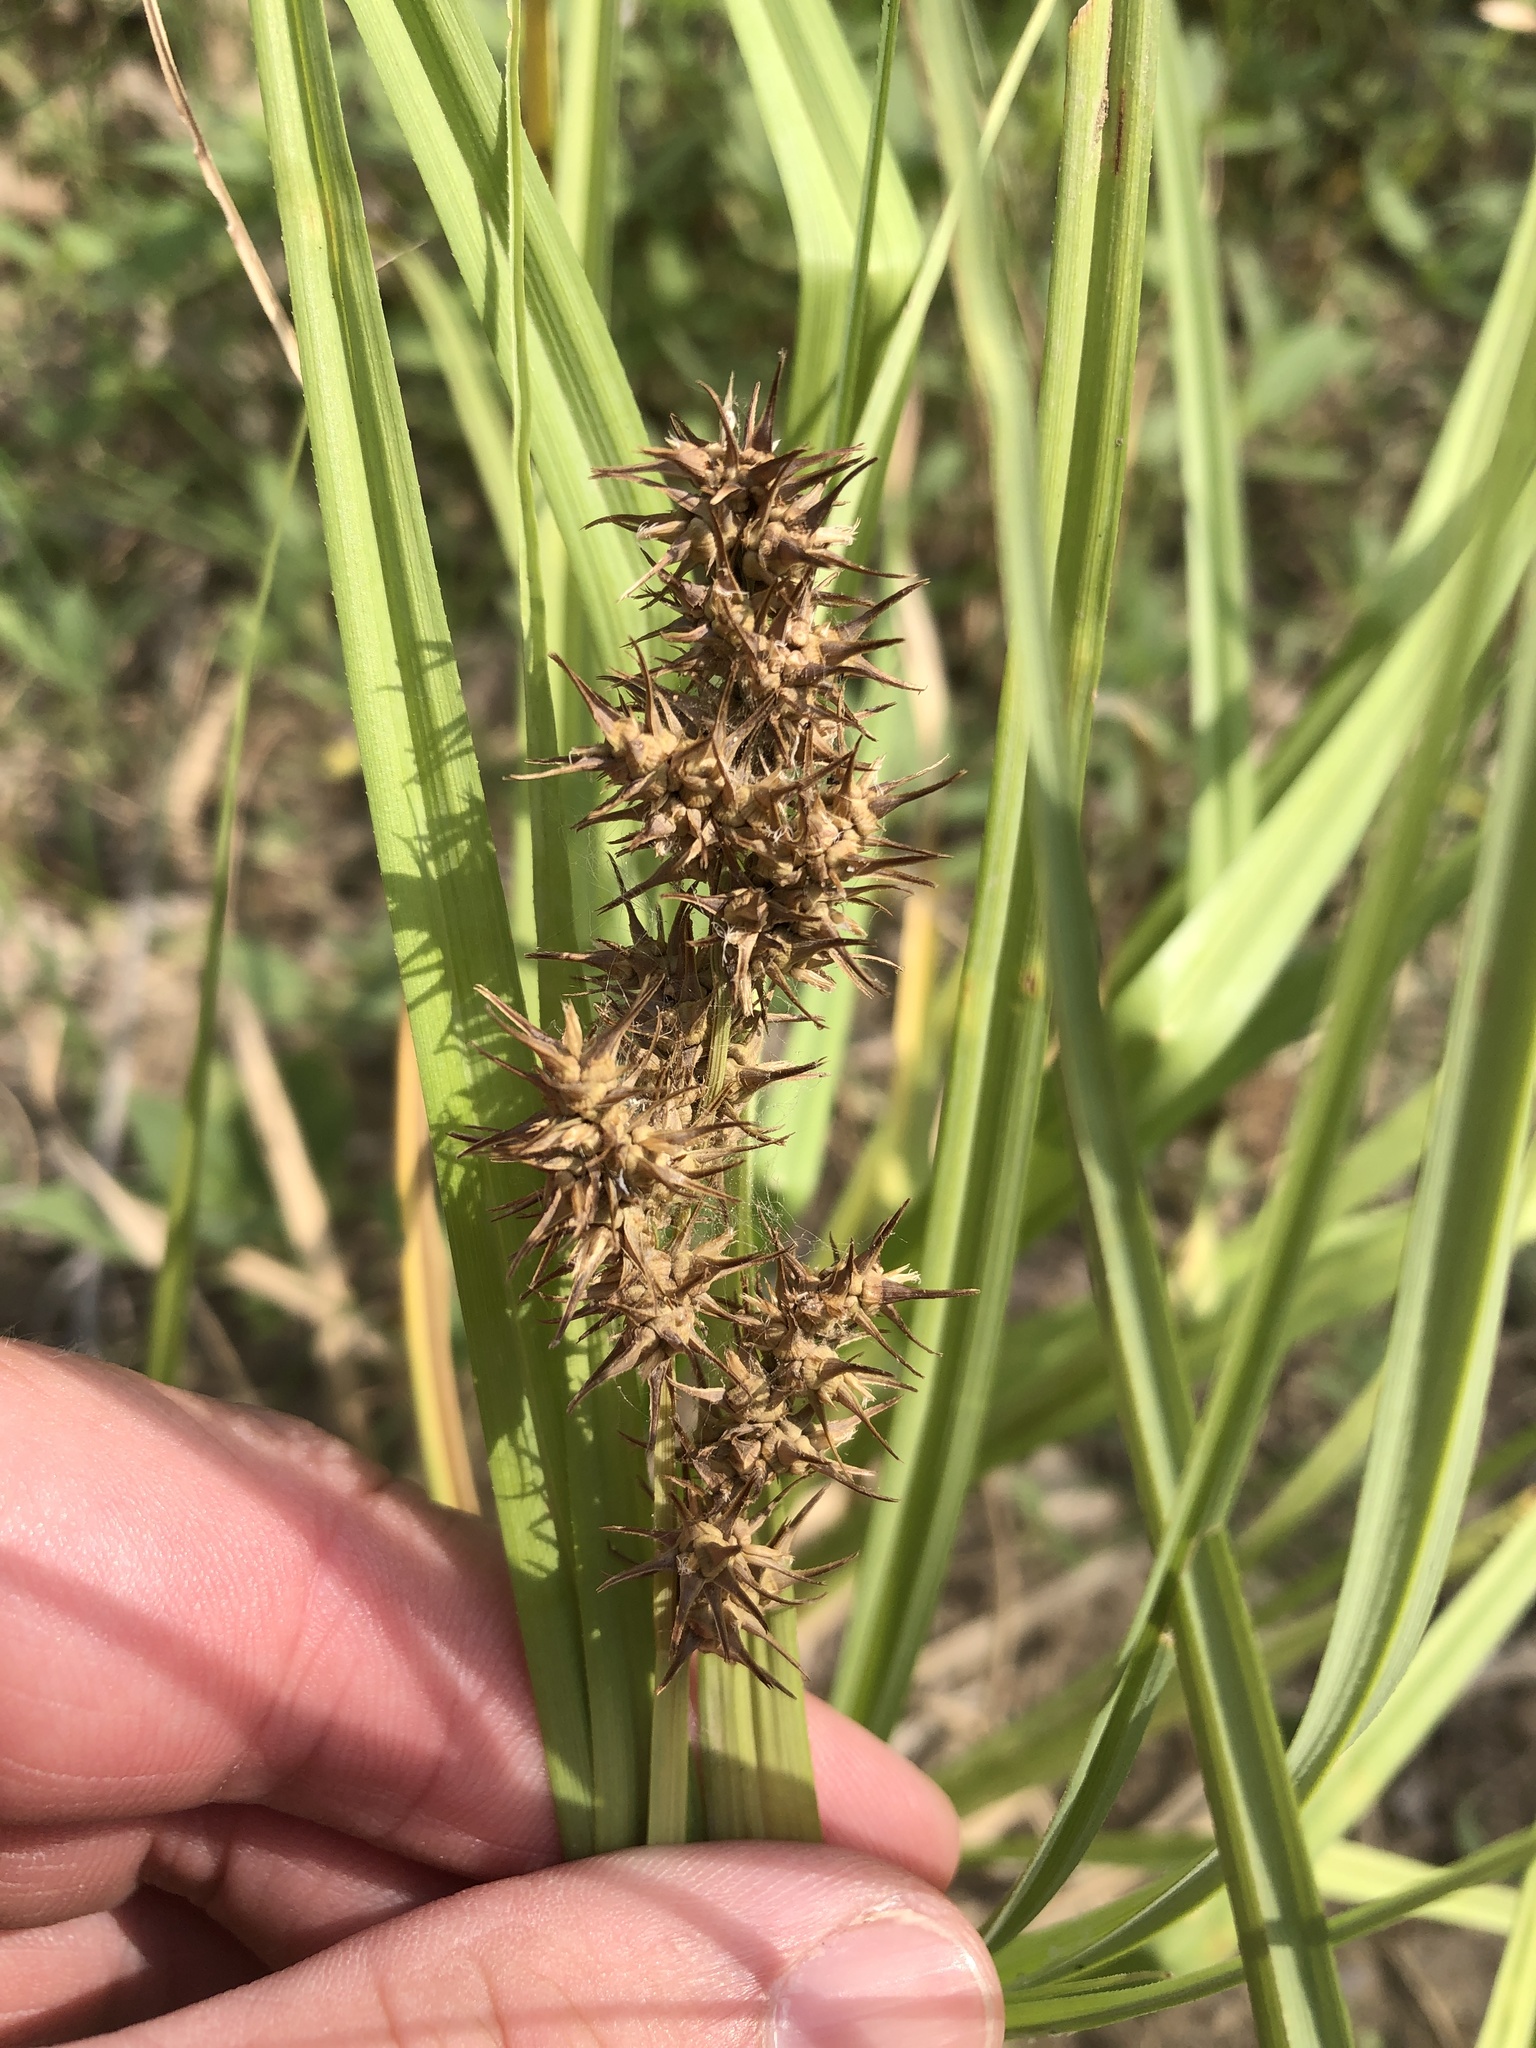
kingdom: Plantae
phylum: Tracheophyta
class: Liliopsida
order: Poales
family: Cyperaceae
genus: Carex
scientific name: Carex crus-corvi
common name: Crow-spur sedge
